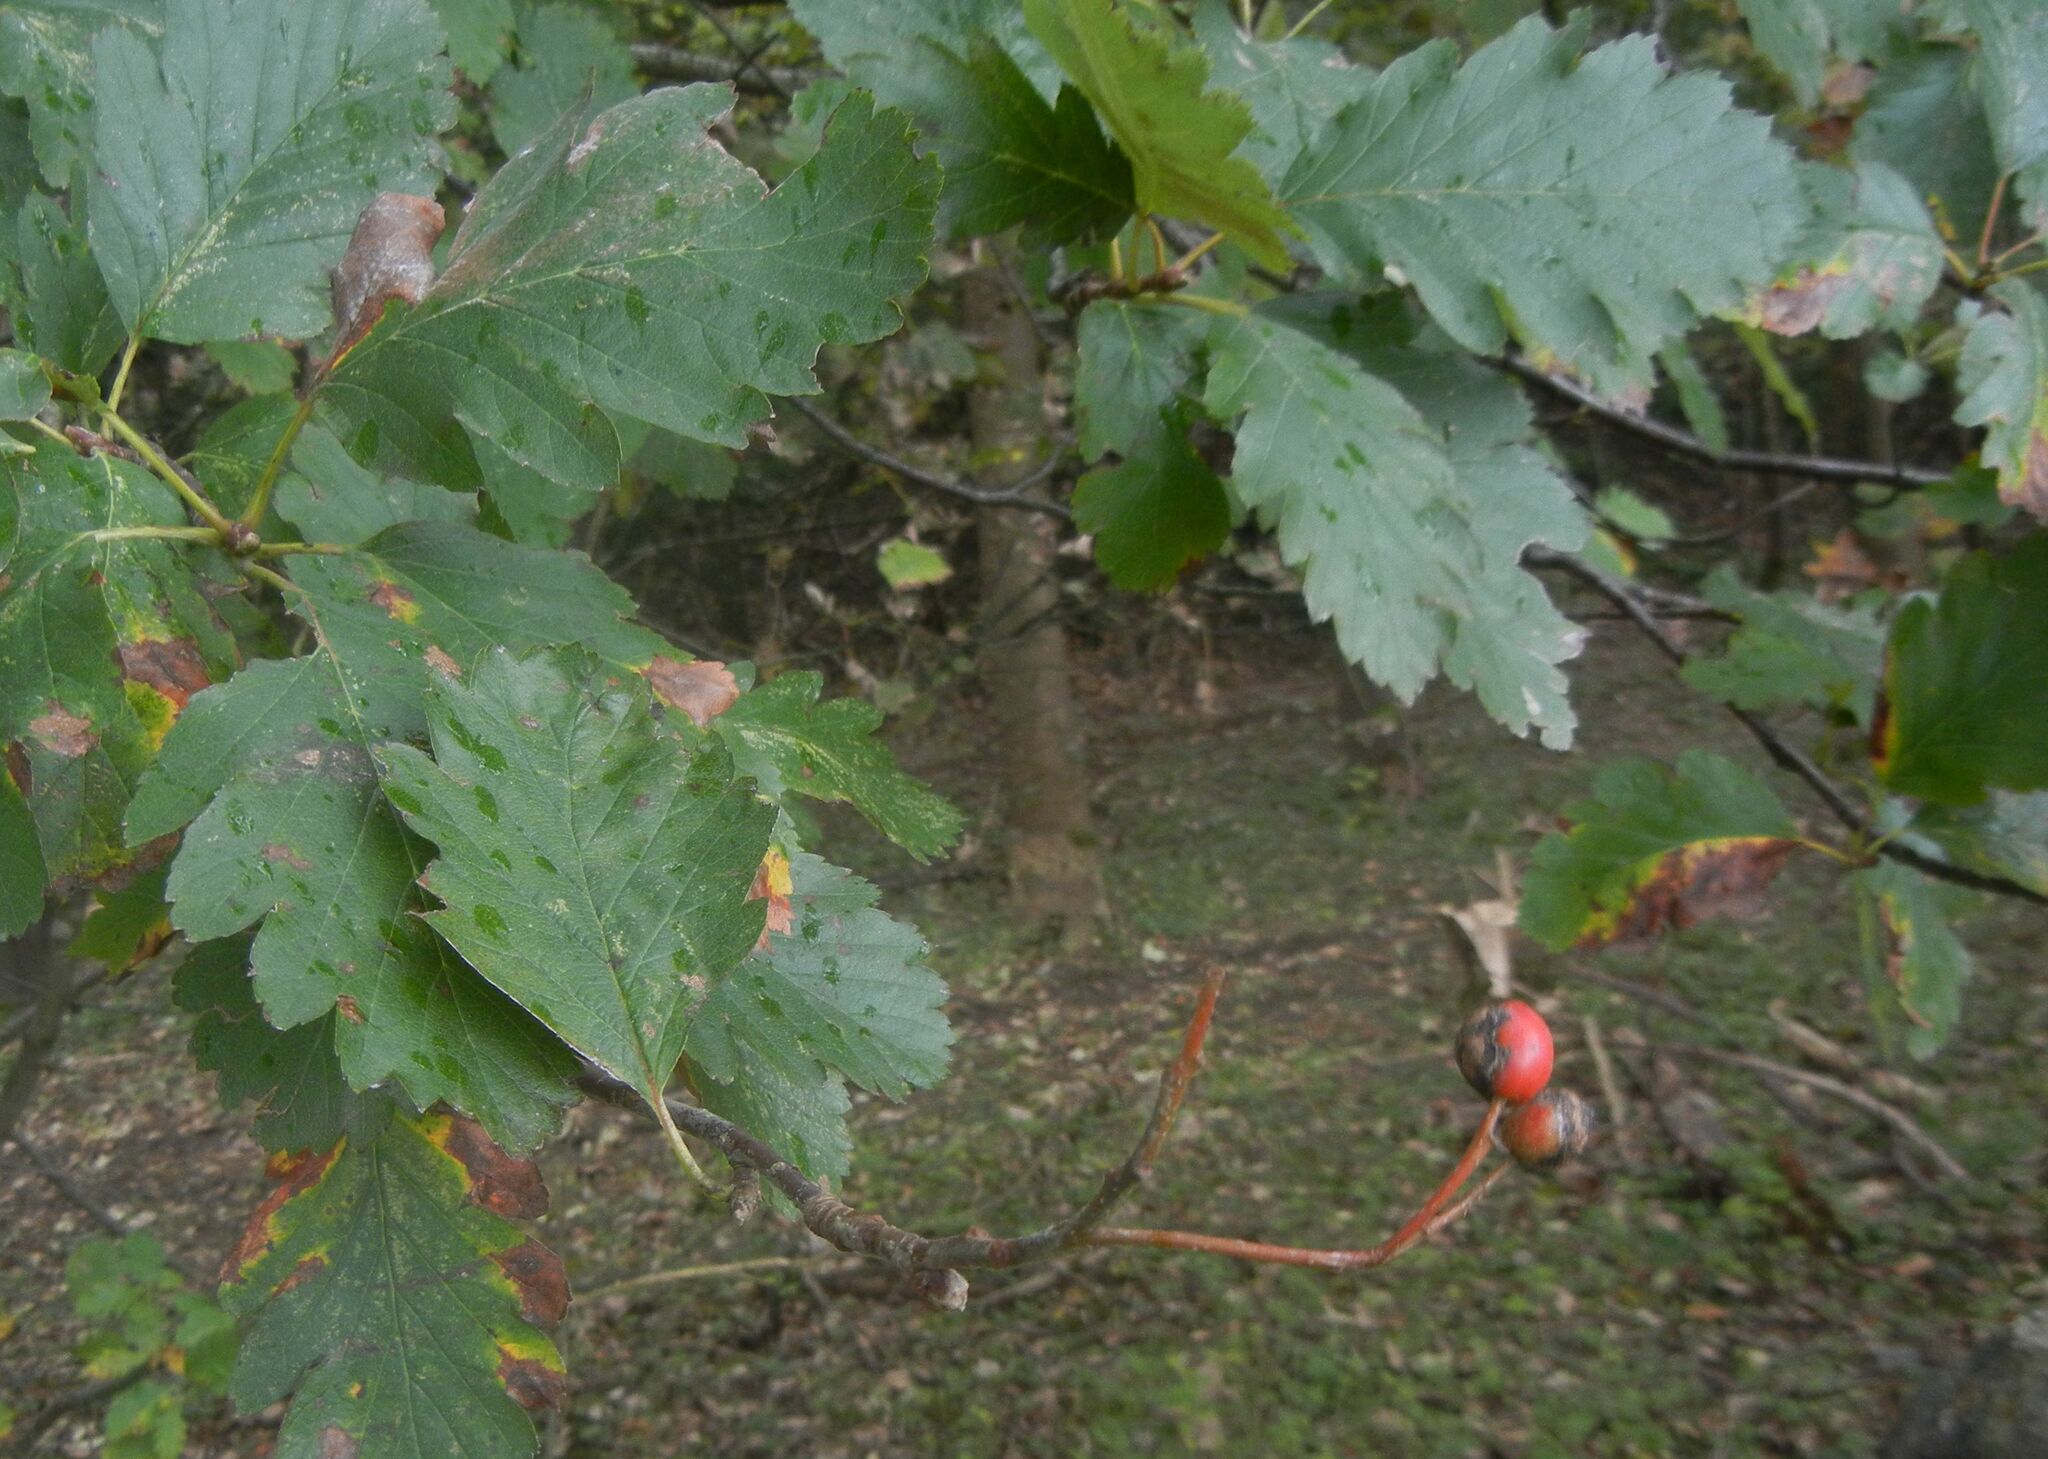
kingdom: Plantae
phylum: Tracheophyta
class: Magnoliopsida
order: Rosales
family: Rosaceae
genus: Scandosorbus
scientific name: Scandosorbus intermedia
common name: Swedish whitebeam
